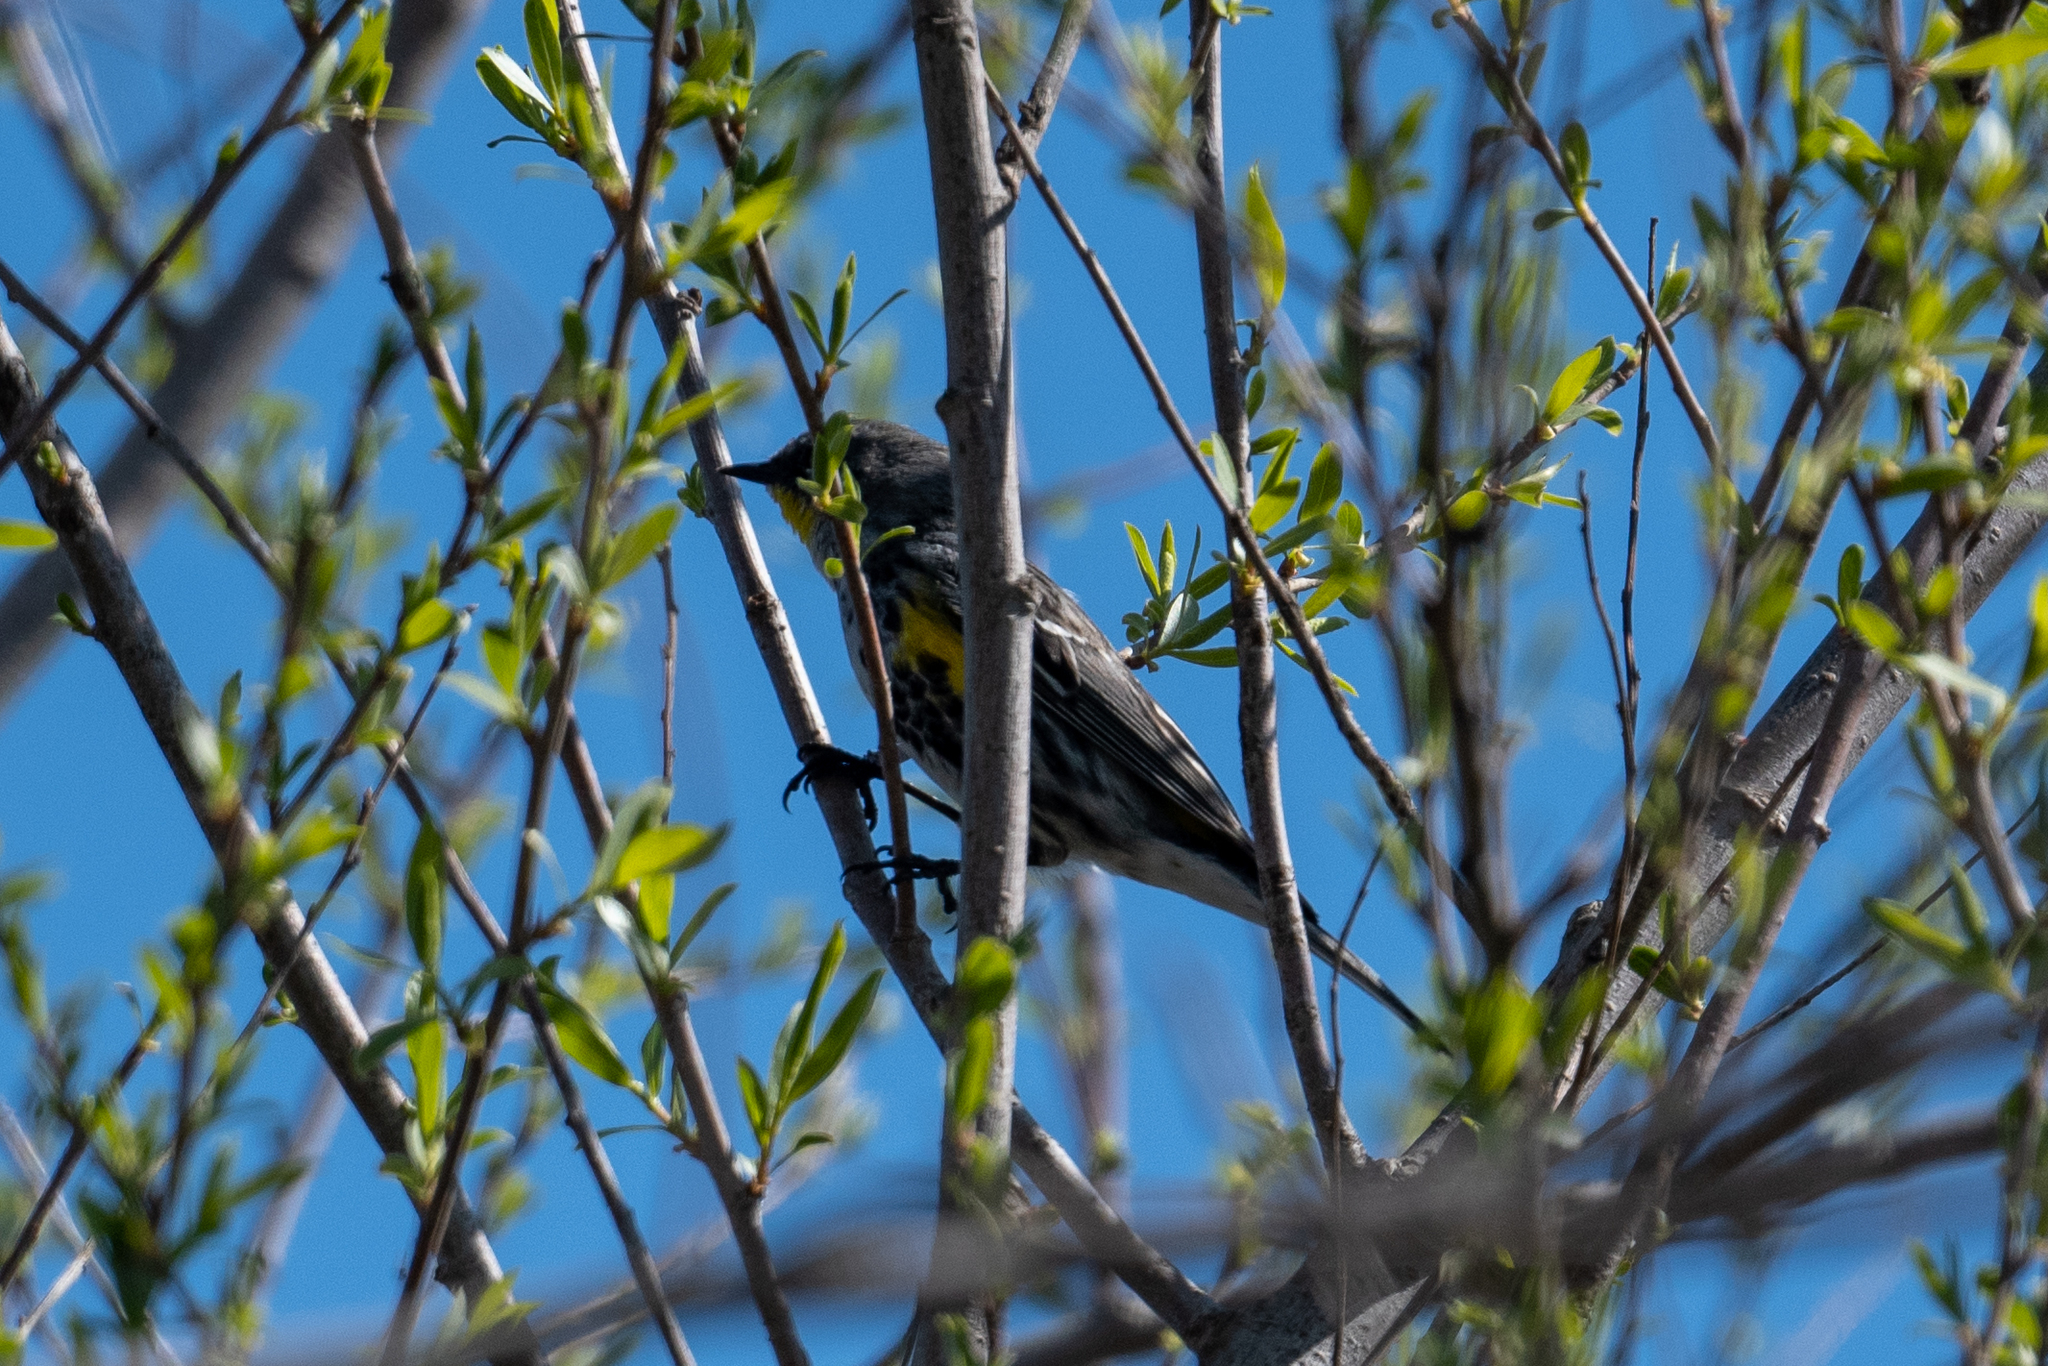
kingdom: Animalia
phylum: Chordata
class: Aves
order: Passeriformes
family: Parulidae
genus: Setophaga
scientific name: Setophaga coronata
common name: Myrtle warbler
